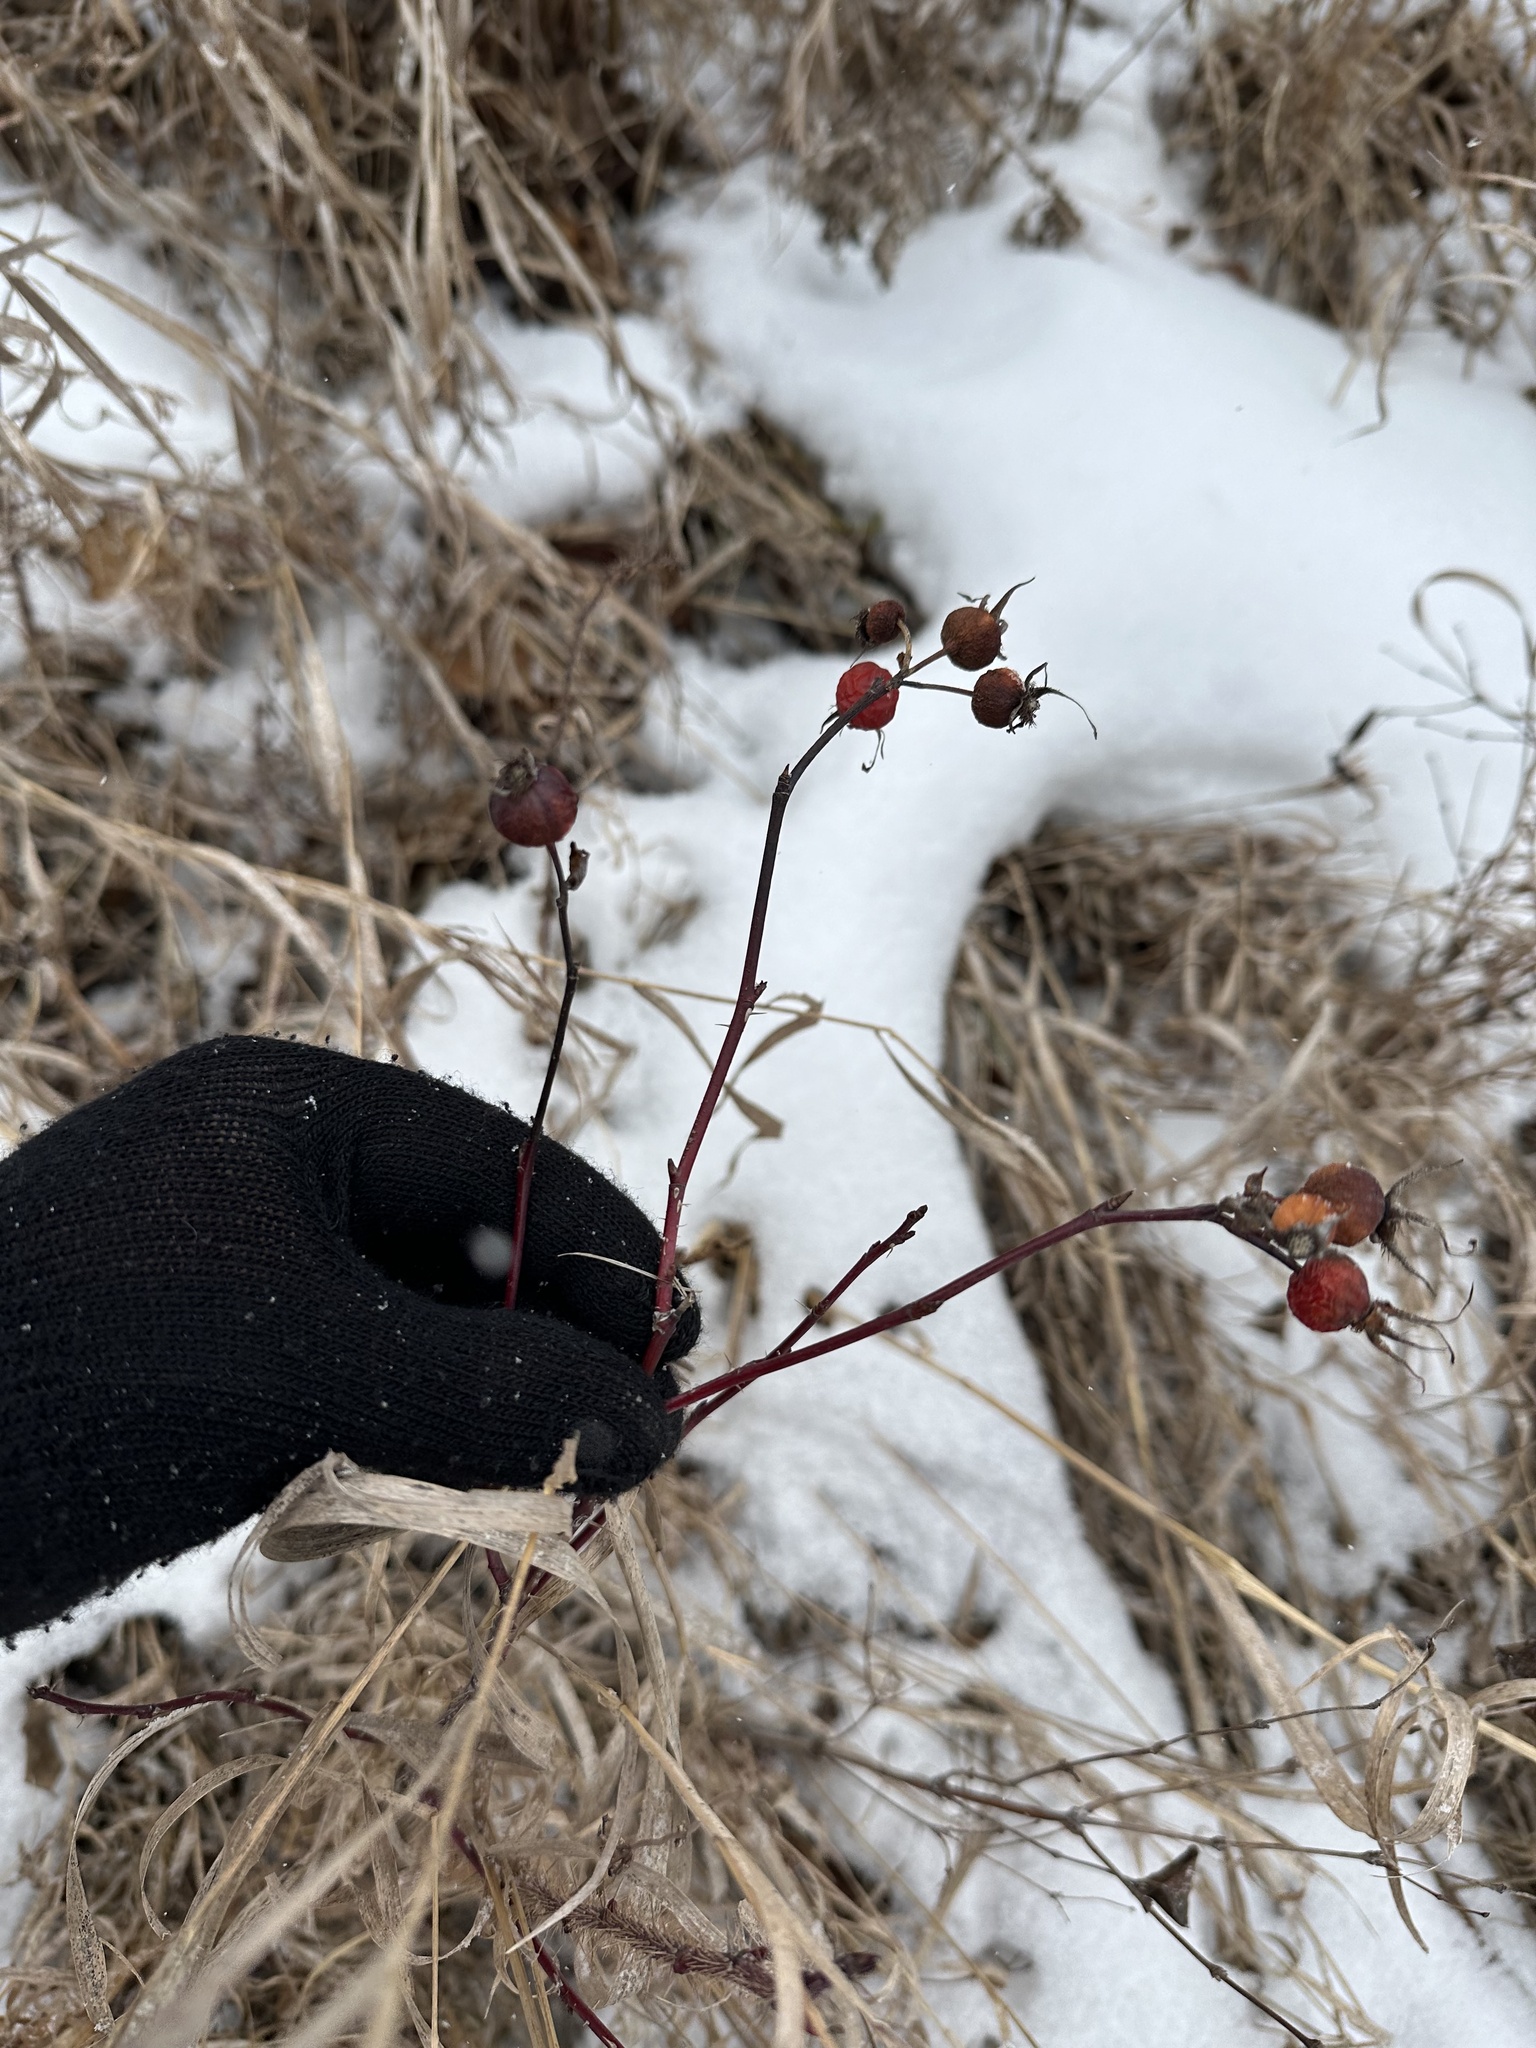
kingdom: Plantae
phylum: Tracheophyta
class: Magnoliopsida
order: Rosales
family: Rosaceae
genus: Rosa
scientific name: Rosa woodsii
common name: Woods's rose
